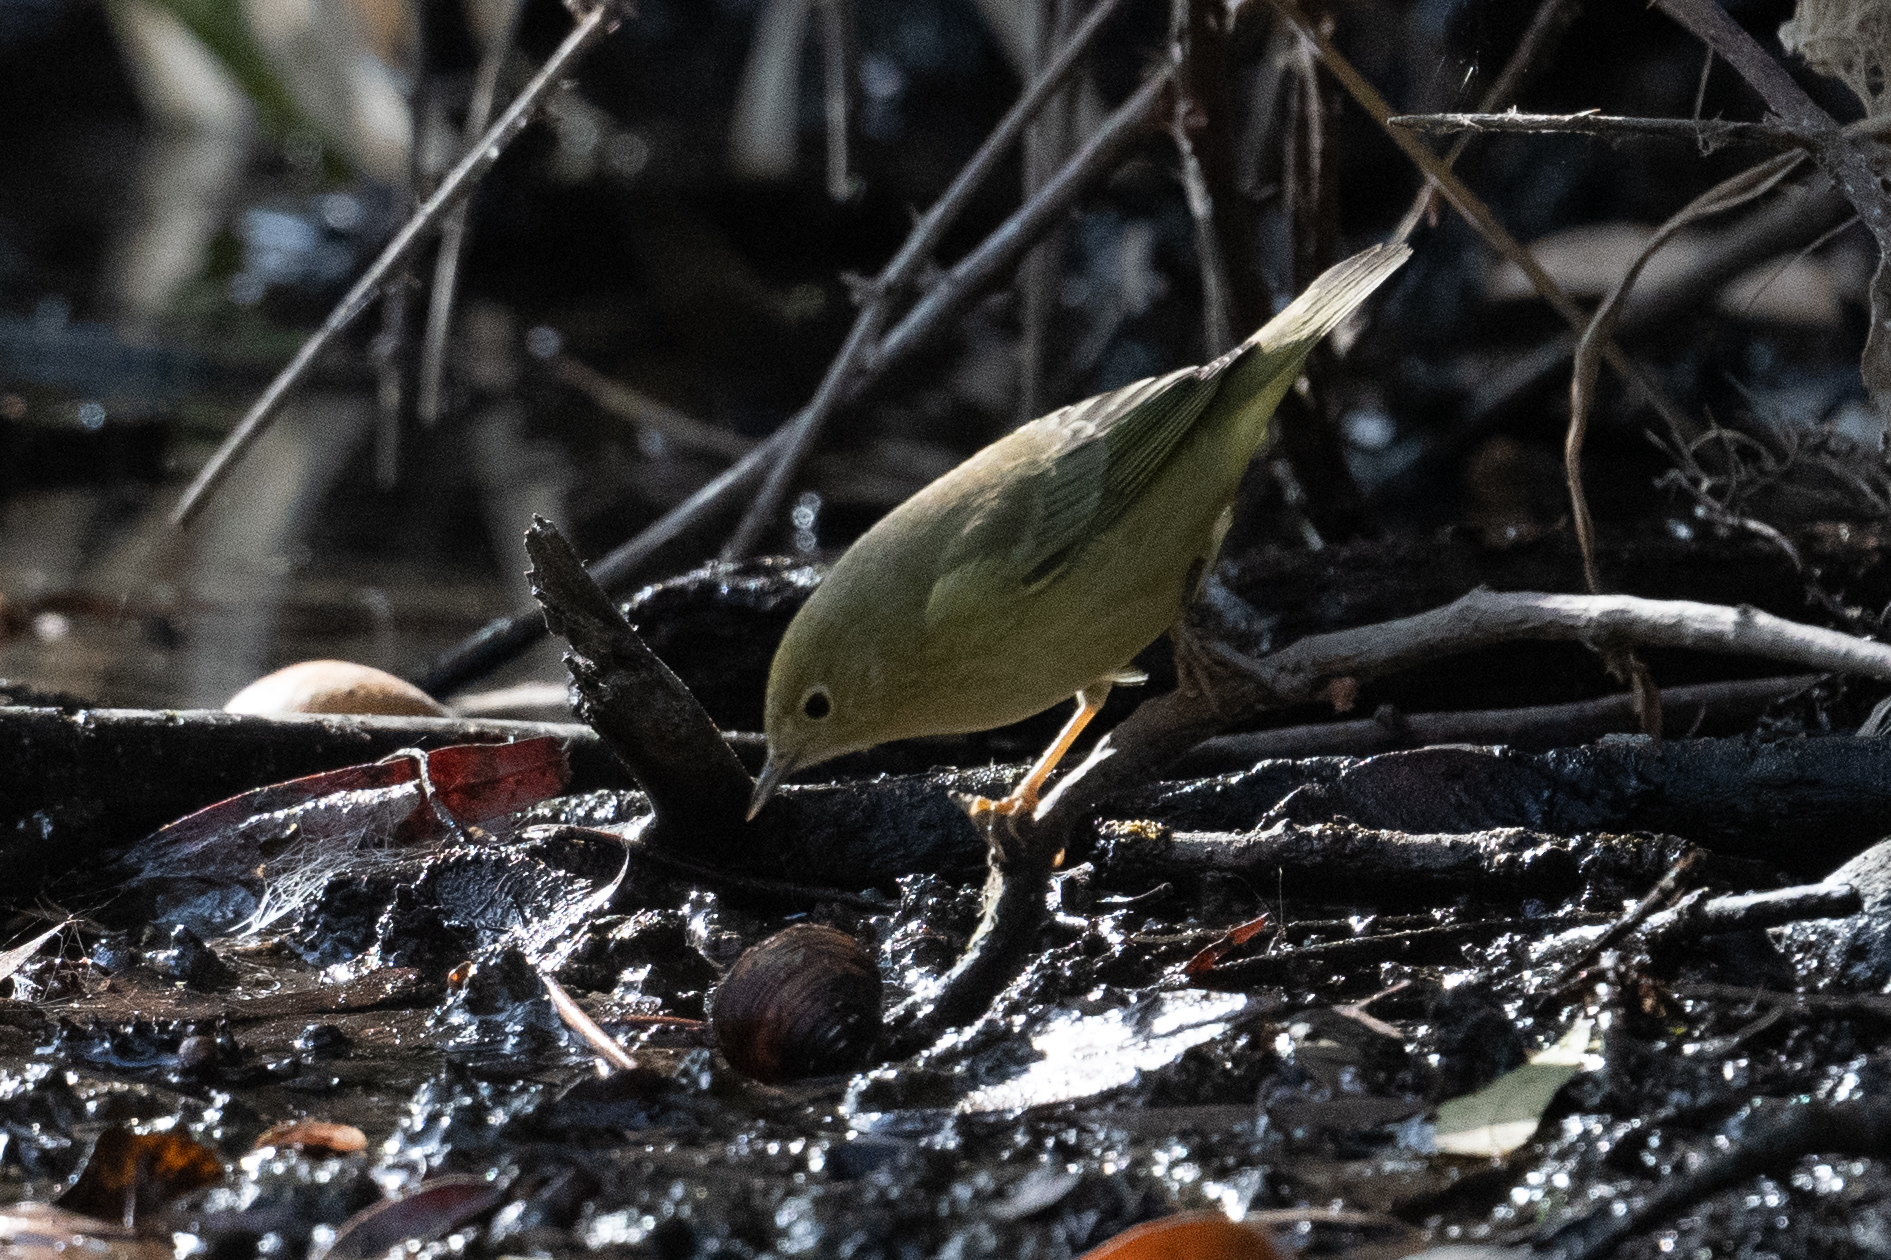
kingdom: Animalia
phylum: Chordata
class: Aves
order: Passeriformes
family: Parulidae
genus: Setophaga
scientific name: Setophaga petechia
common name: Yellow warbler
